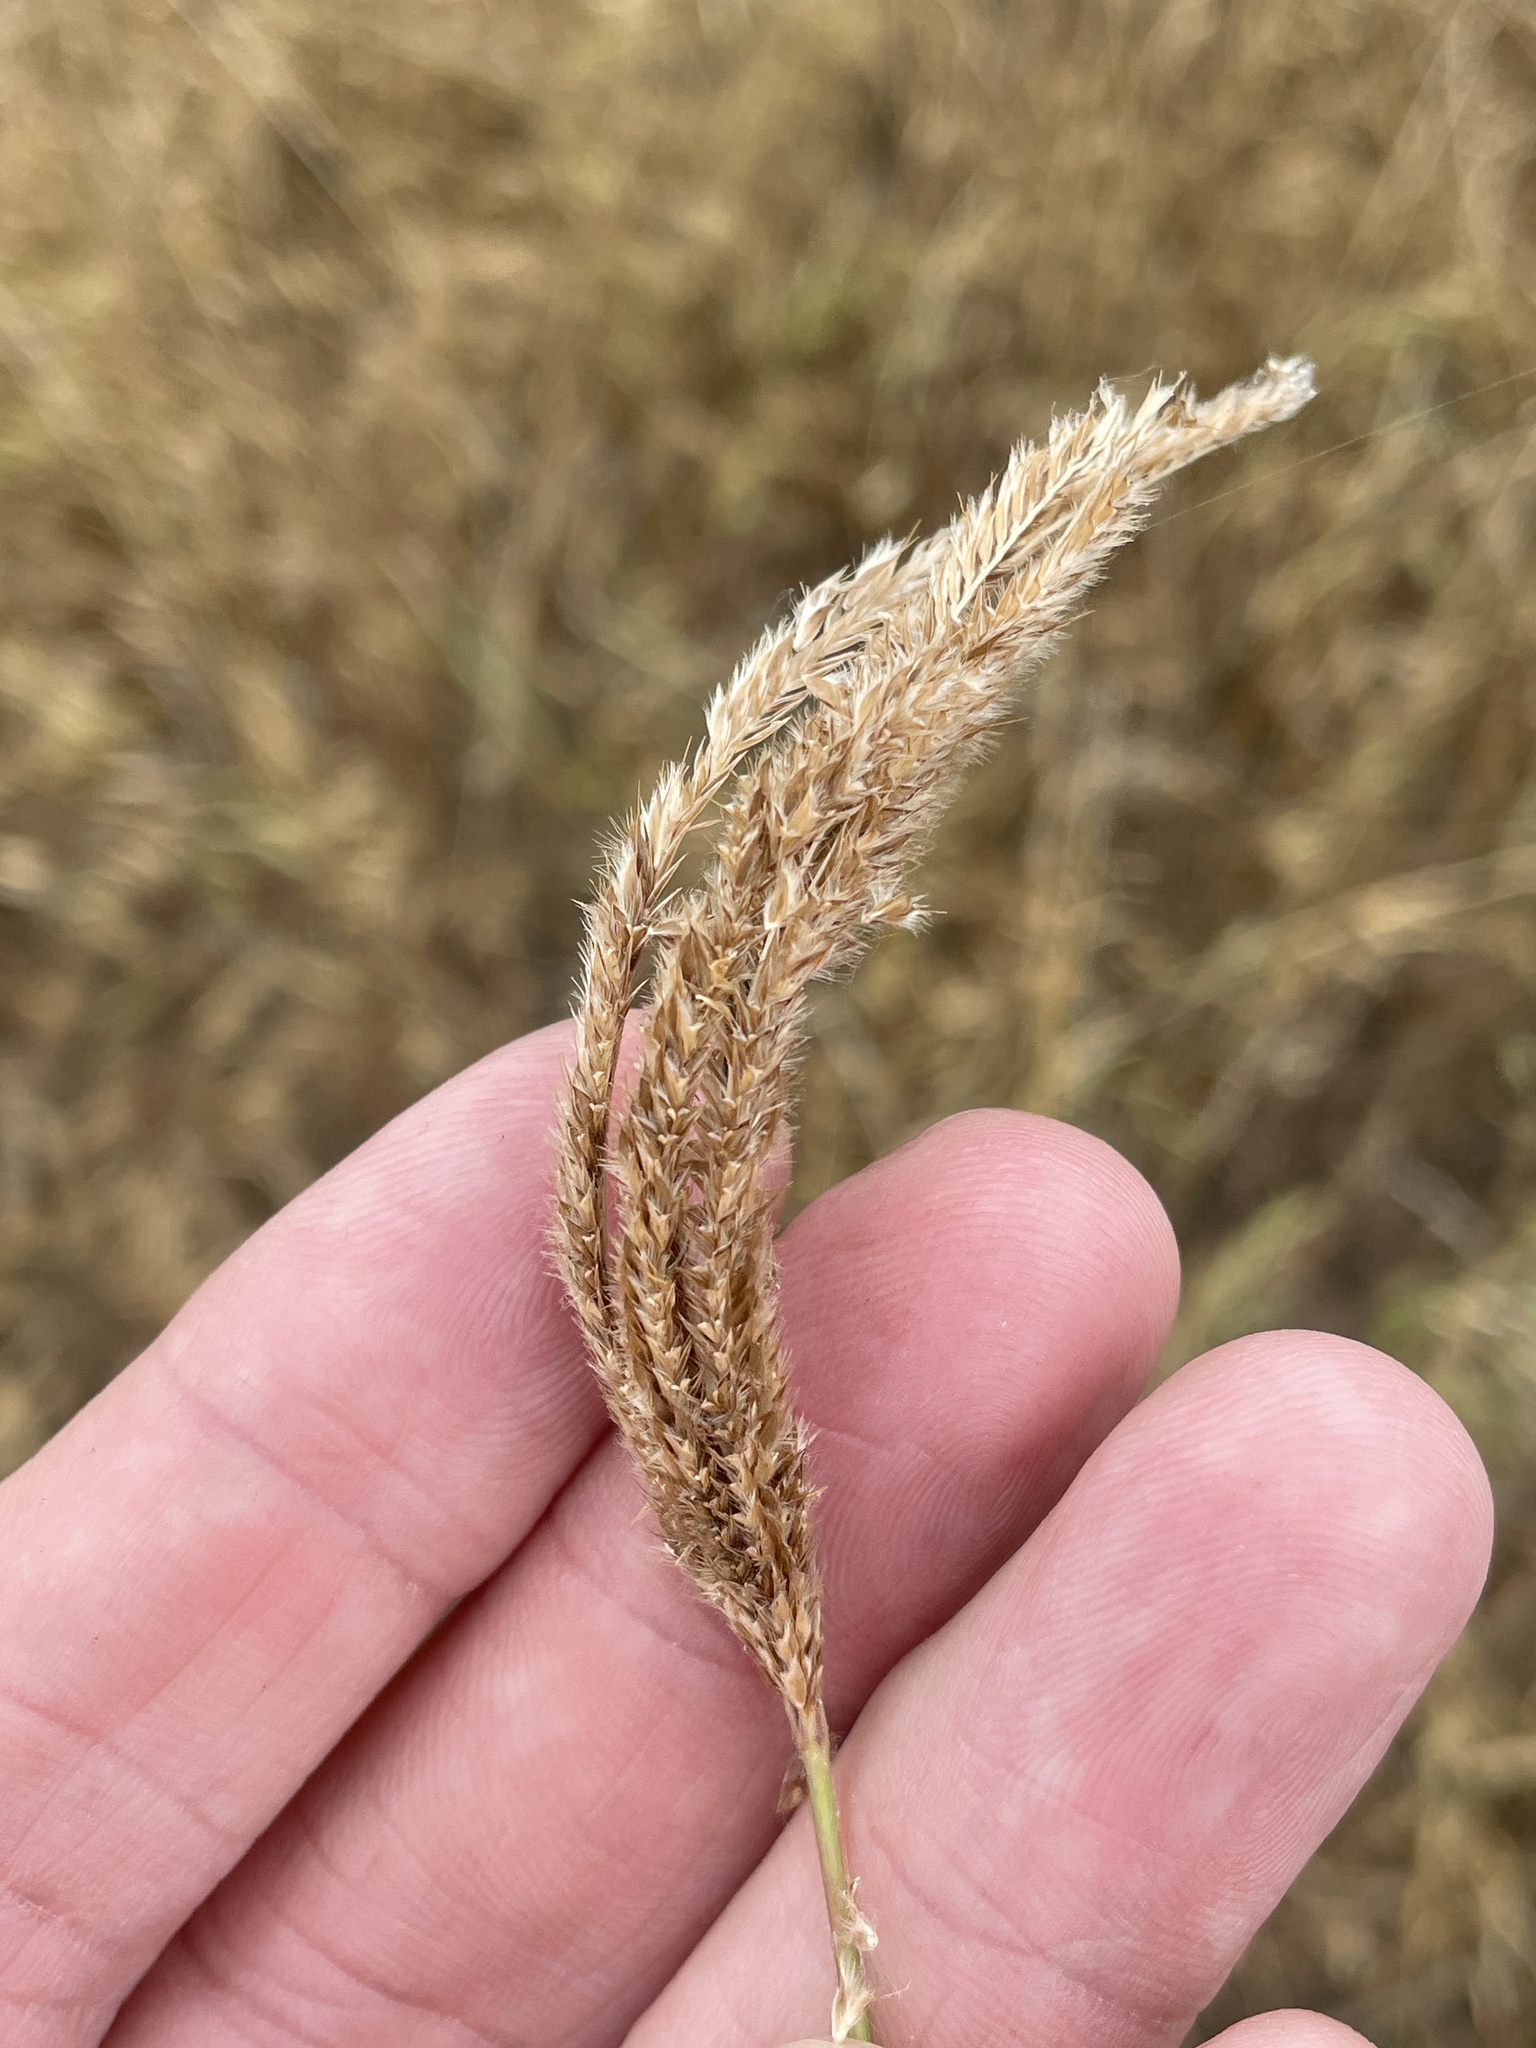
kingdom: Plantae
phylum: Tracheophyta
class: Liliopsida
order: Poales
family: Poaceae
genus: Stapfochloa
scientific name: Stapfochloa canterae
